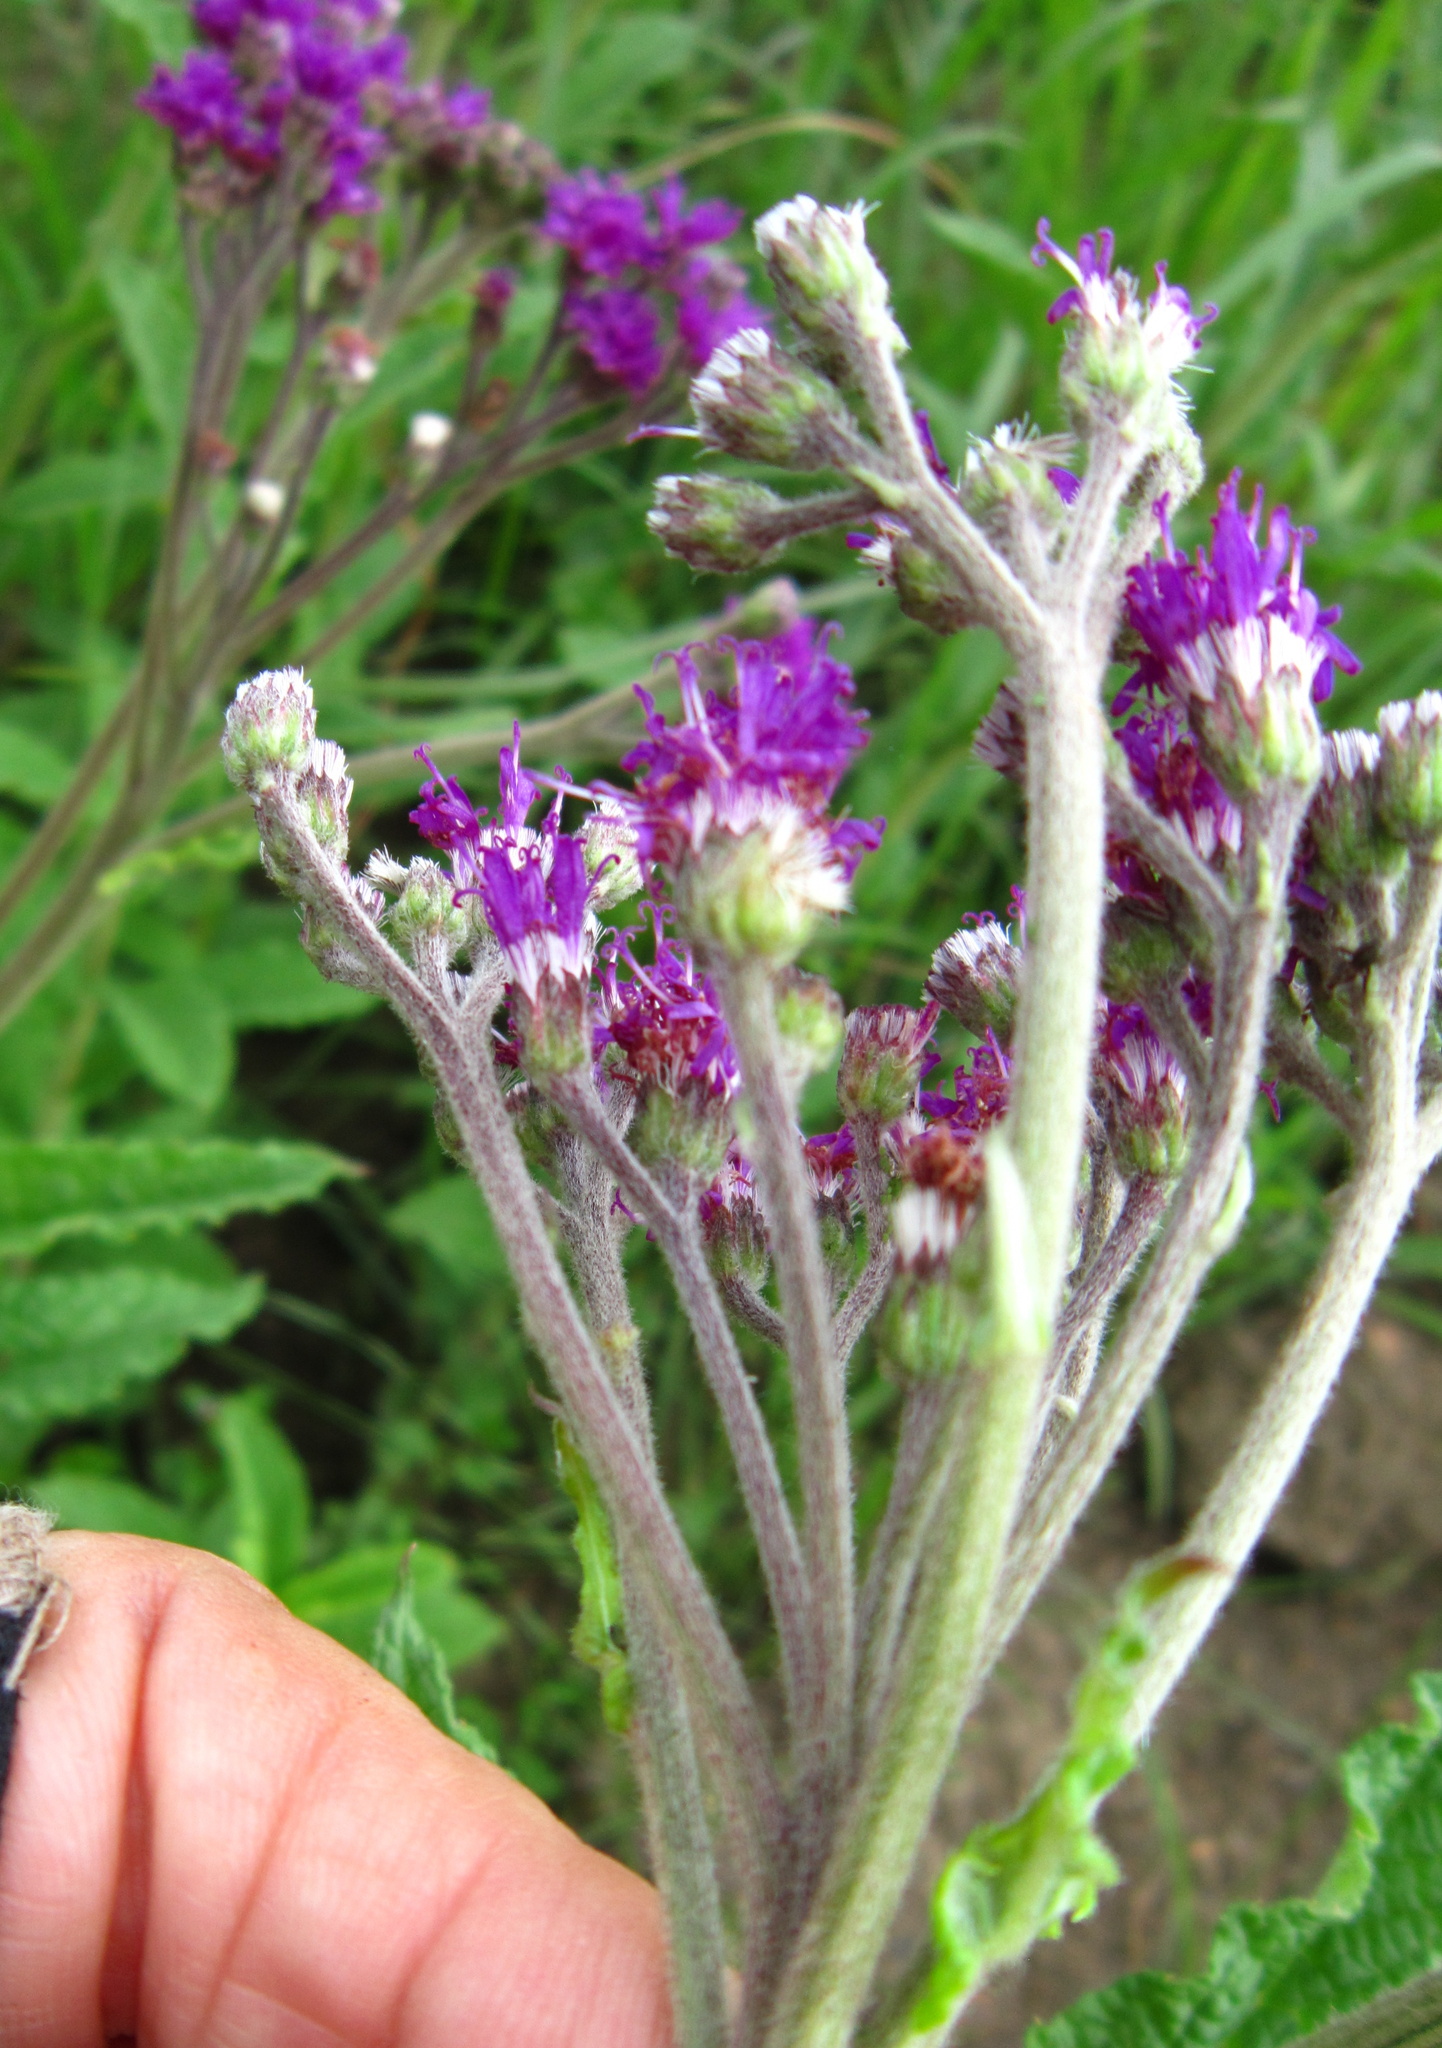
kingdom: Plantae
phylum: Tracheophyta
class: Magnoliopsida
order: Asterales
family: Asteraceae
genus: Hilliardiella
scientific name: Hilliardiella hirsuta
